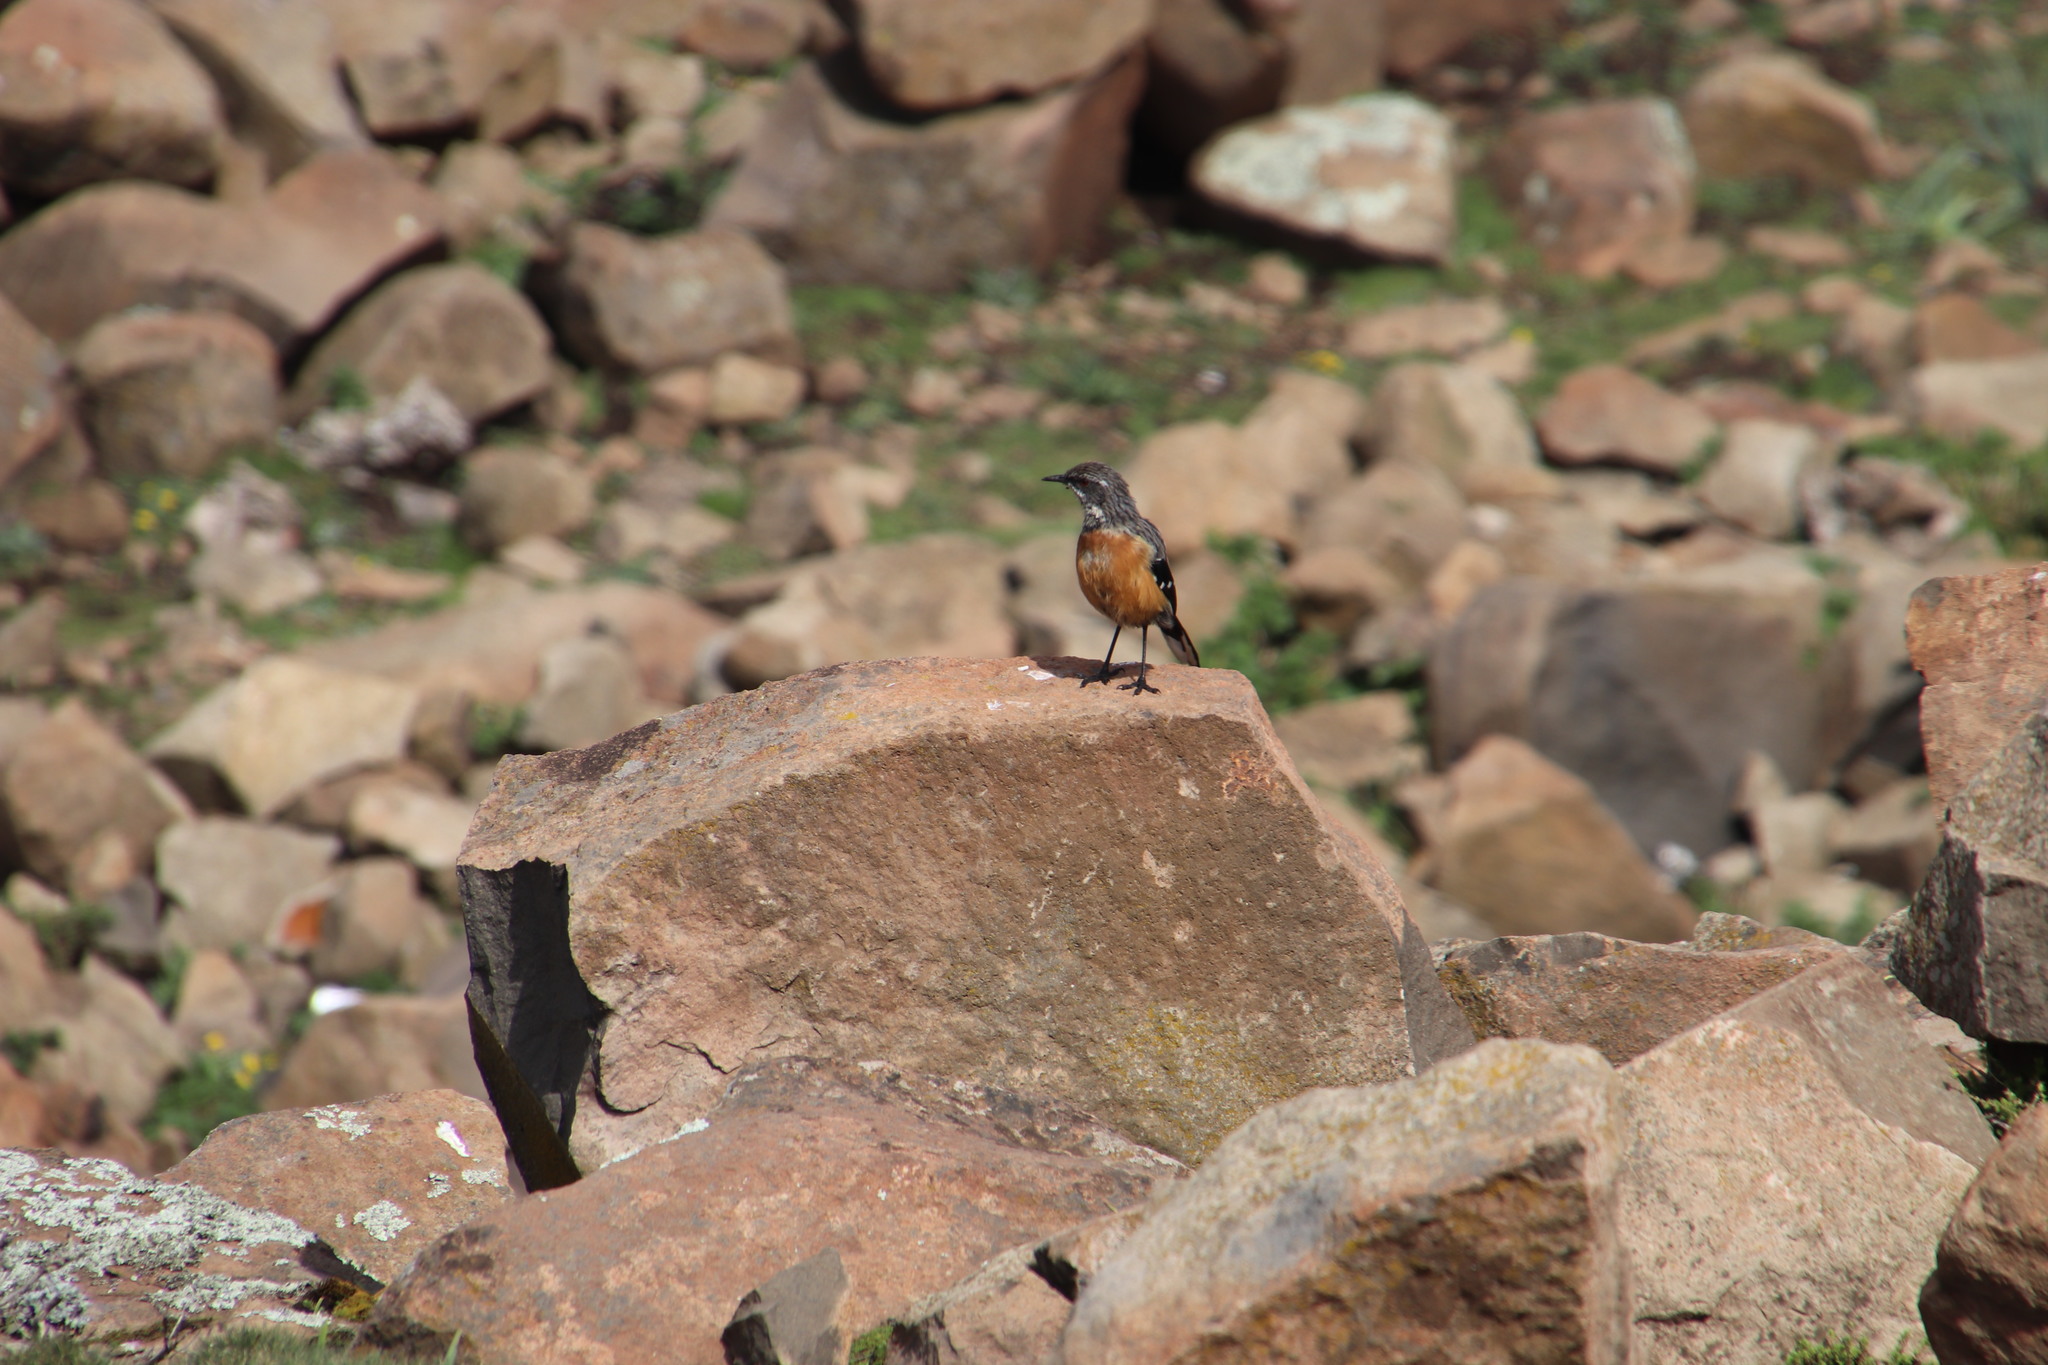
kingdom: Animalia
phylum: Chordata
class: Aves
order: Passeriformes
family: Chaetopidae
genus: Chaetops
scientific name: Chaetops aurantius
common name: Drakensberg rockjumper
